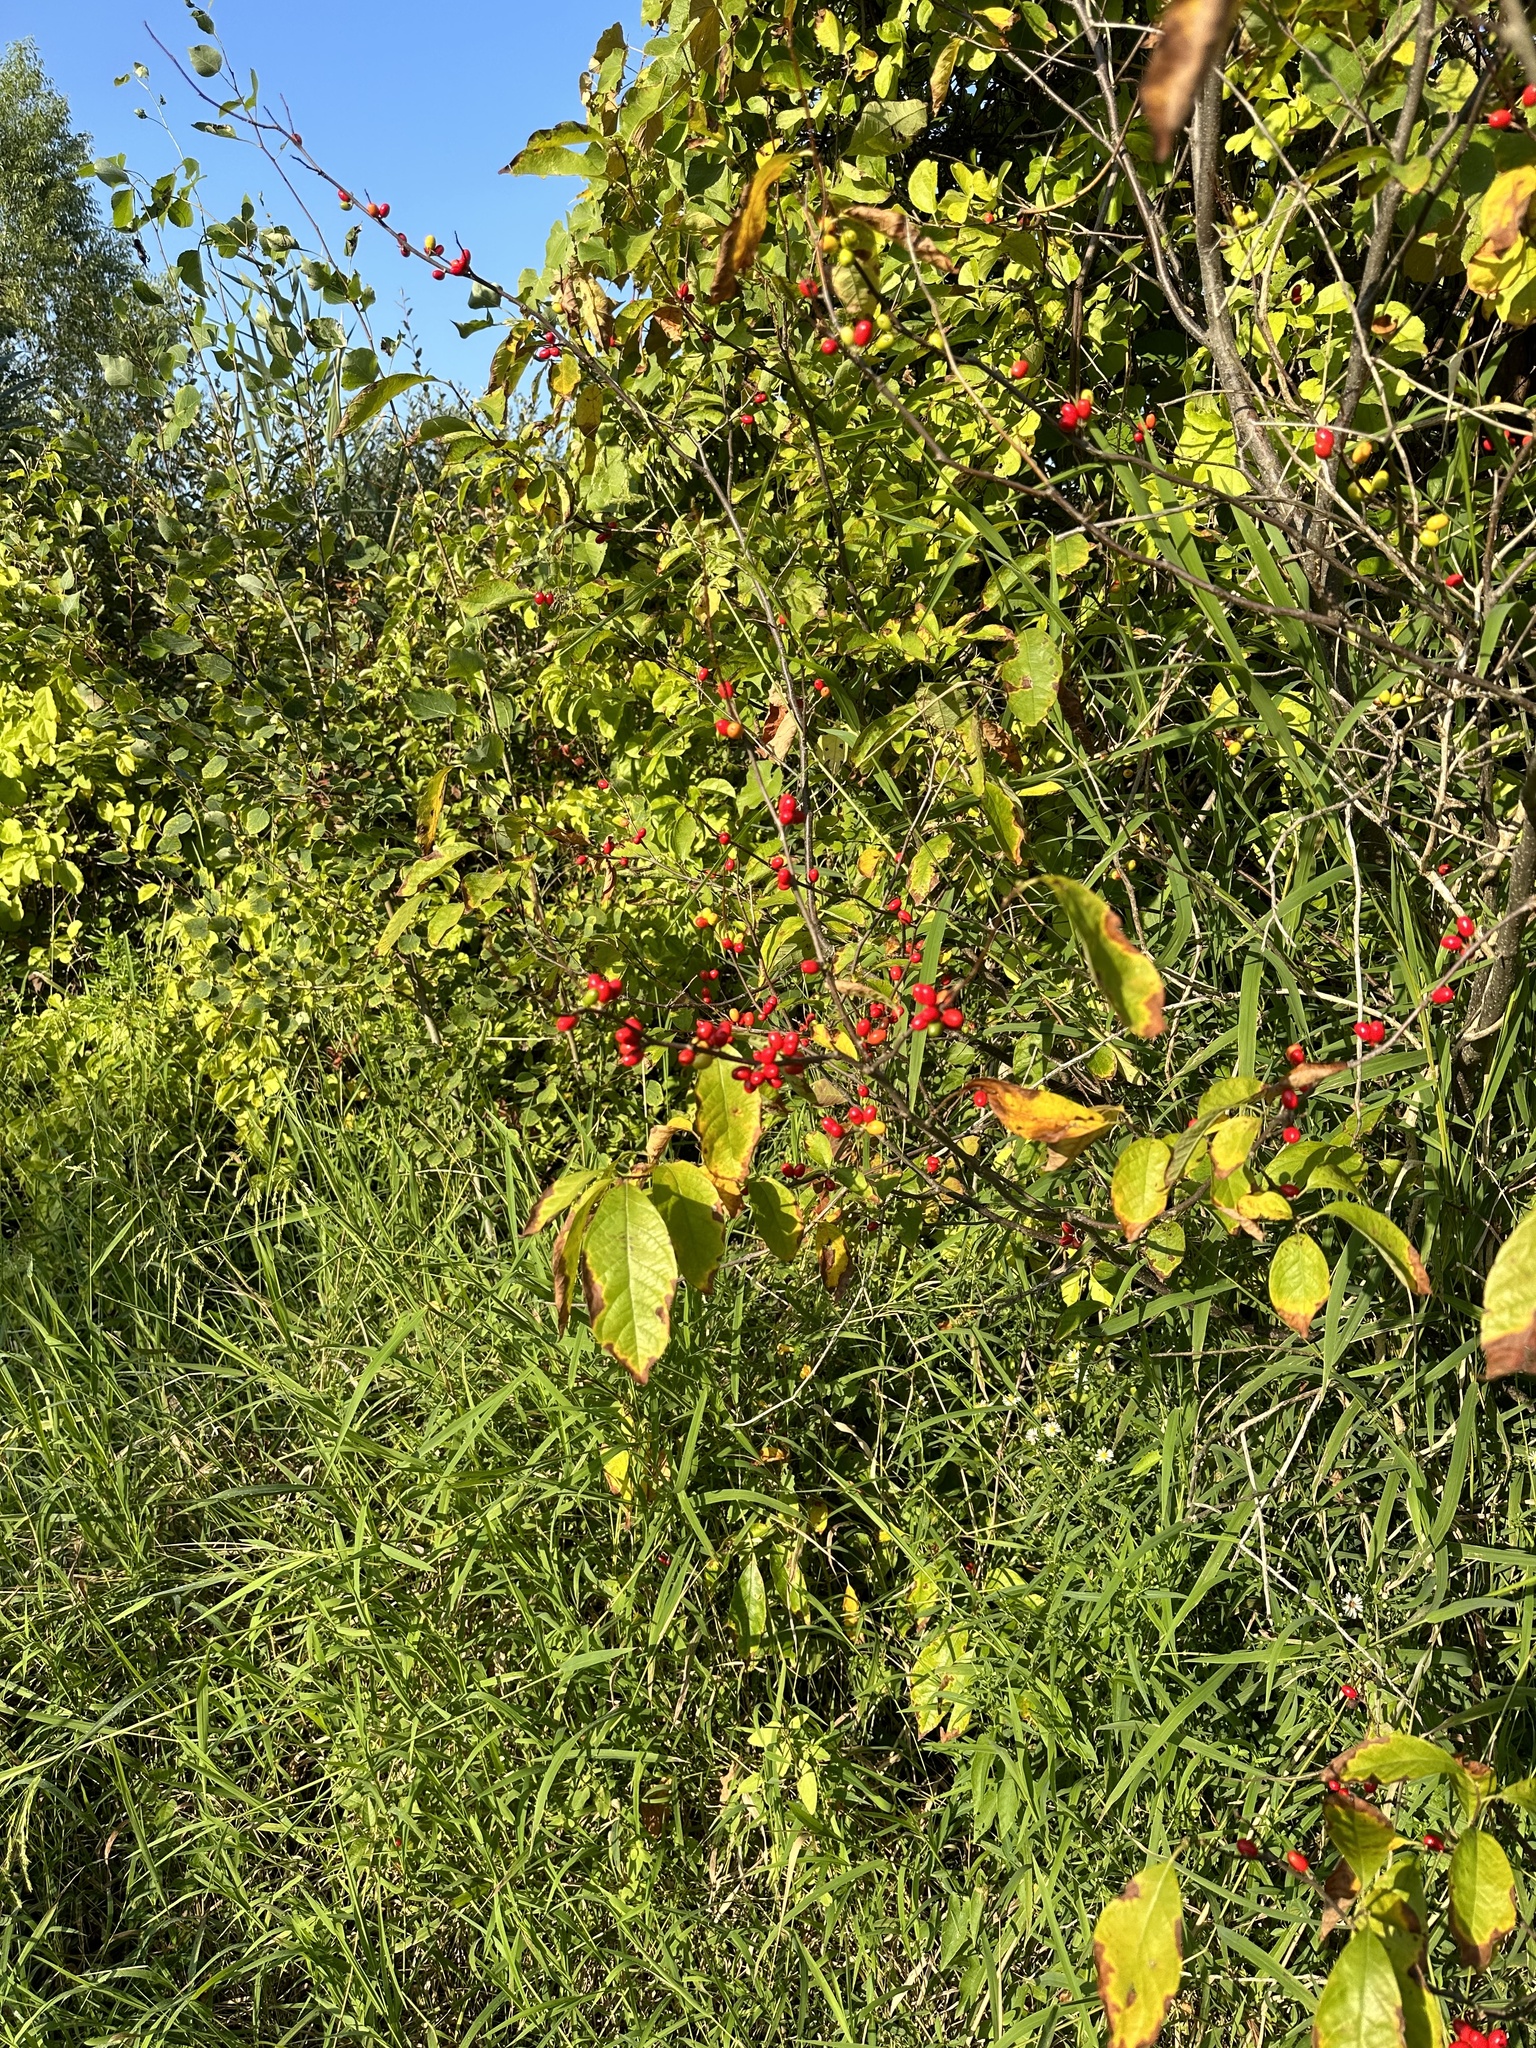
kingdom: Plantae
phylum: Tracheophyta
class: Magnoliopsida
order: Laurales
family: Lauraceae
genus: Lindera
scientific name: Lindera benzoin
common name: Spicebush
